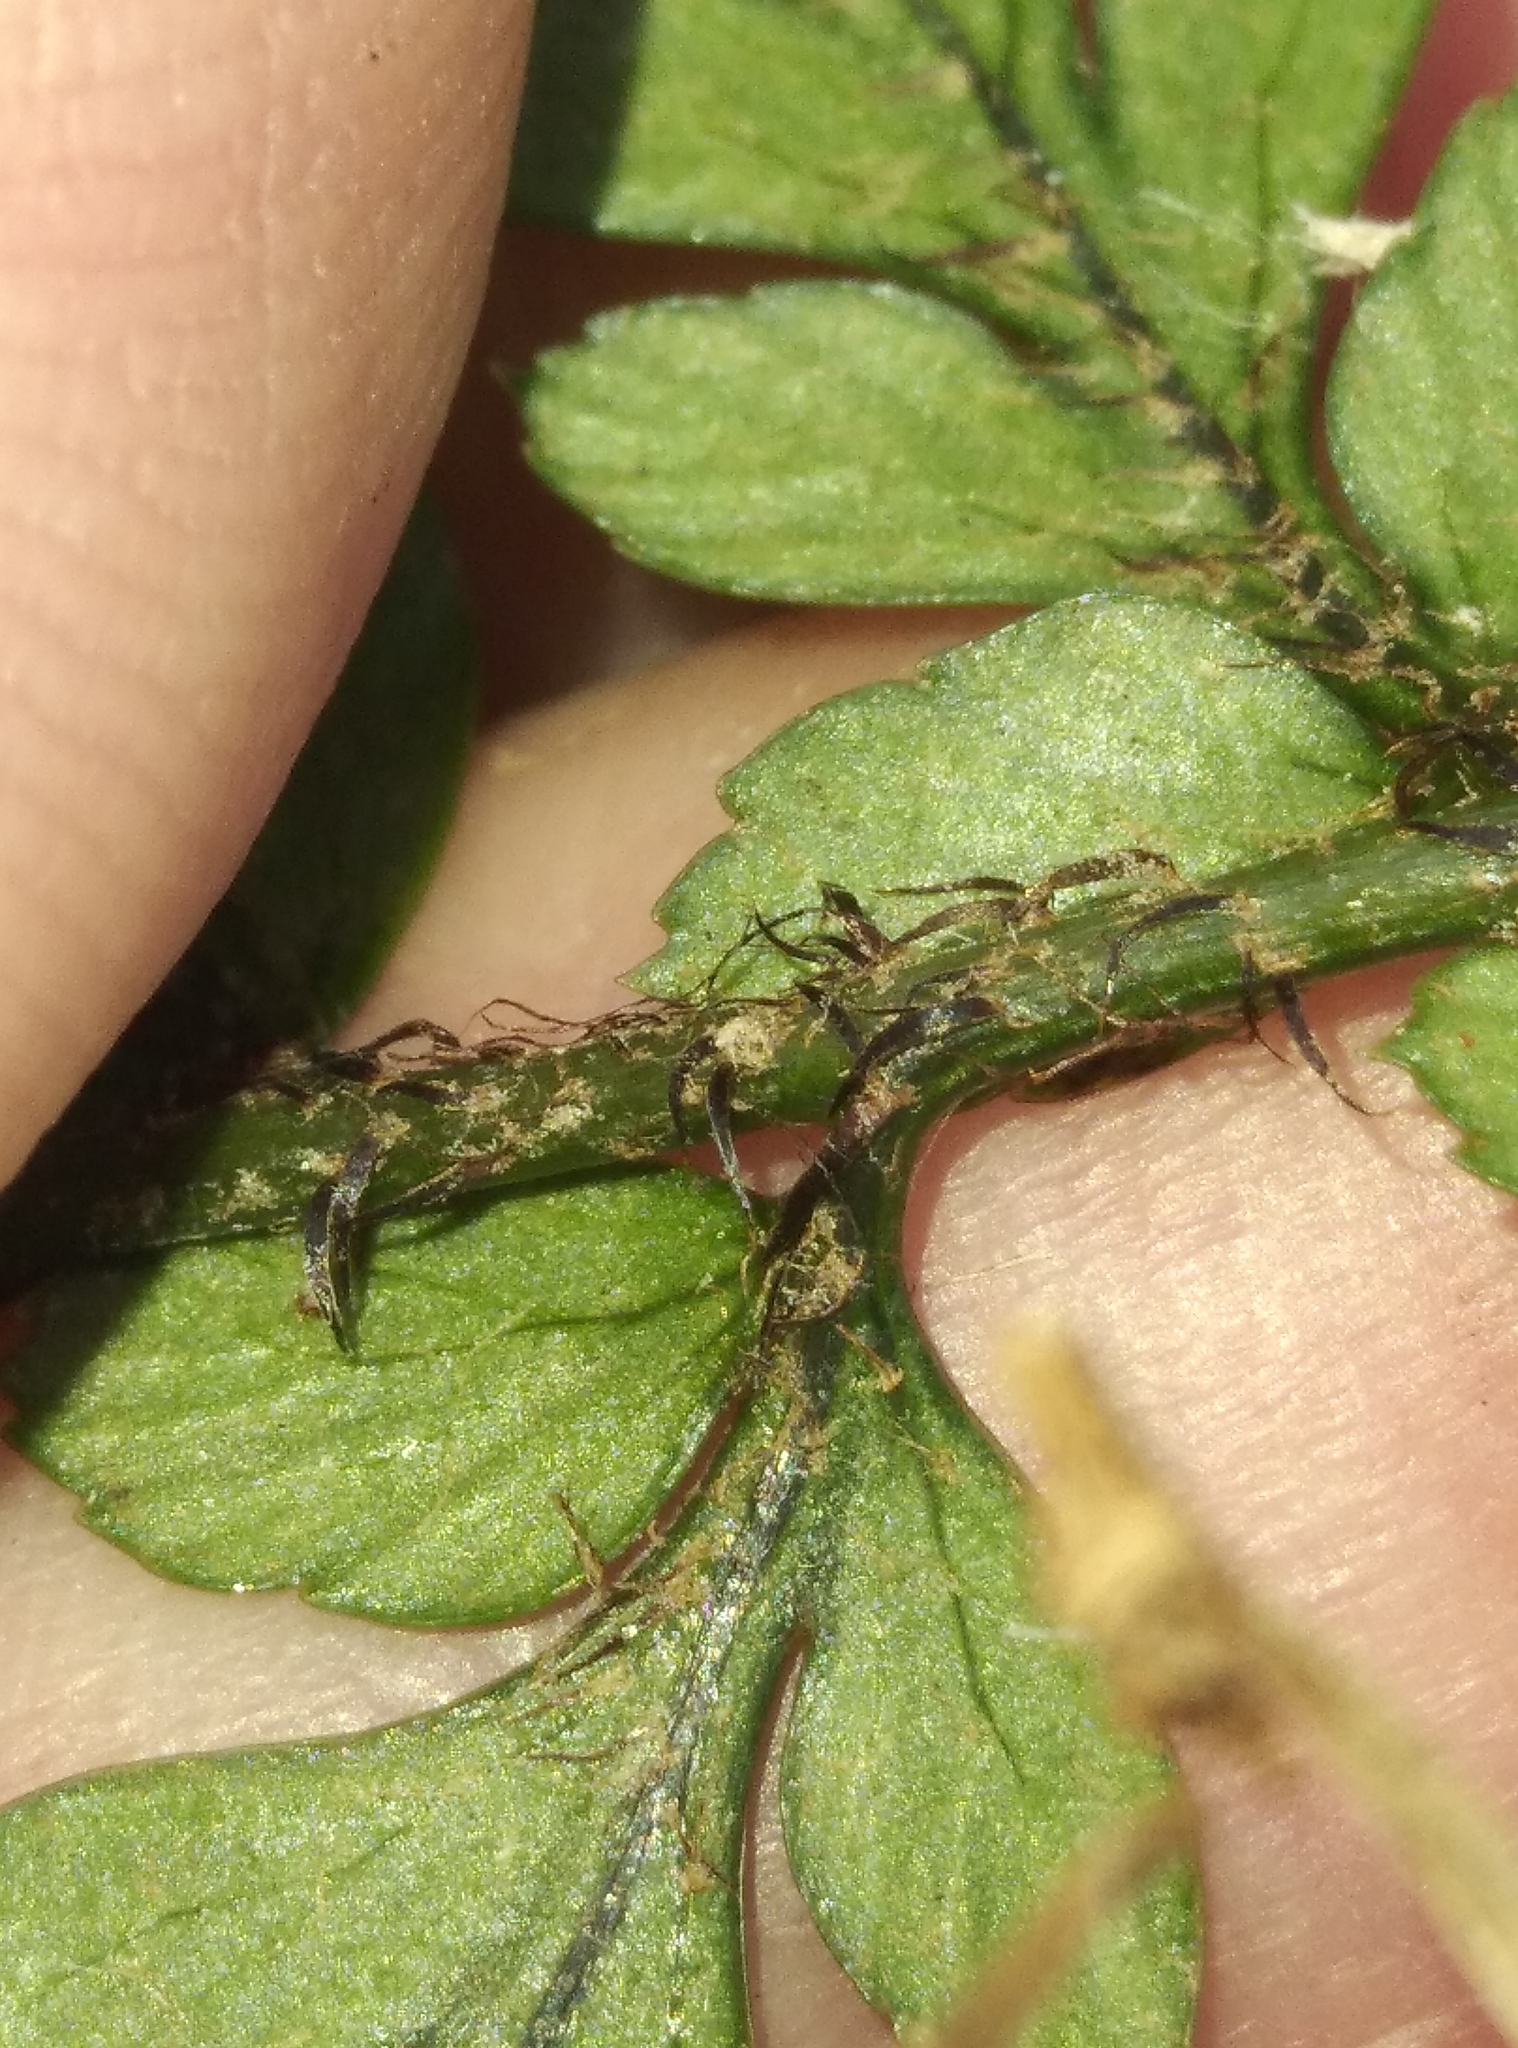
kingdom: Plantae
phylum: Tracheophyta
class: Polypodiopsida
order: Polypodiales
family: Dryopteridaceae
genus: Polystichum
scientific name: Polystichum neozelandicum
